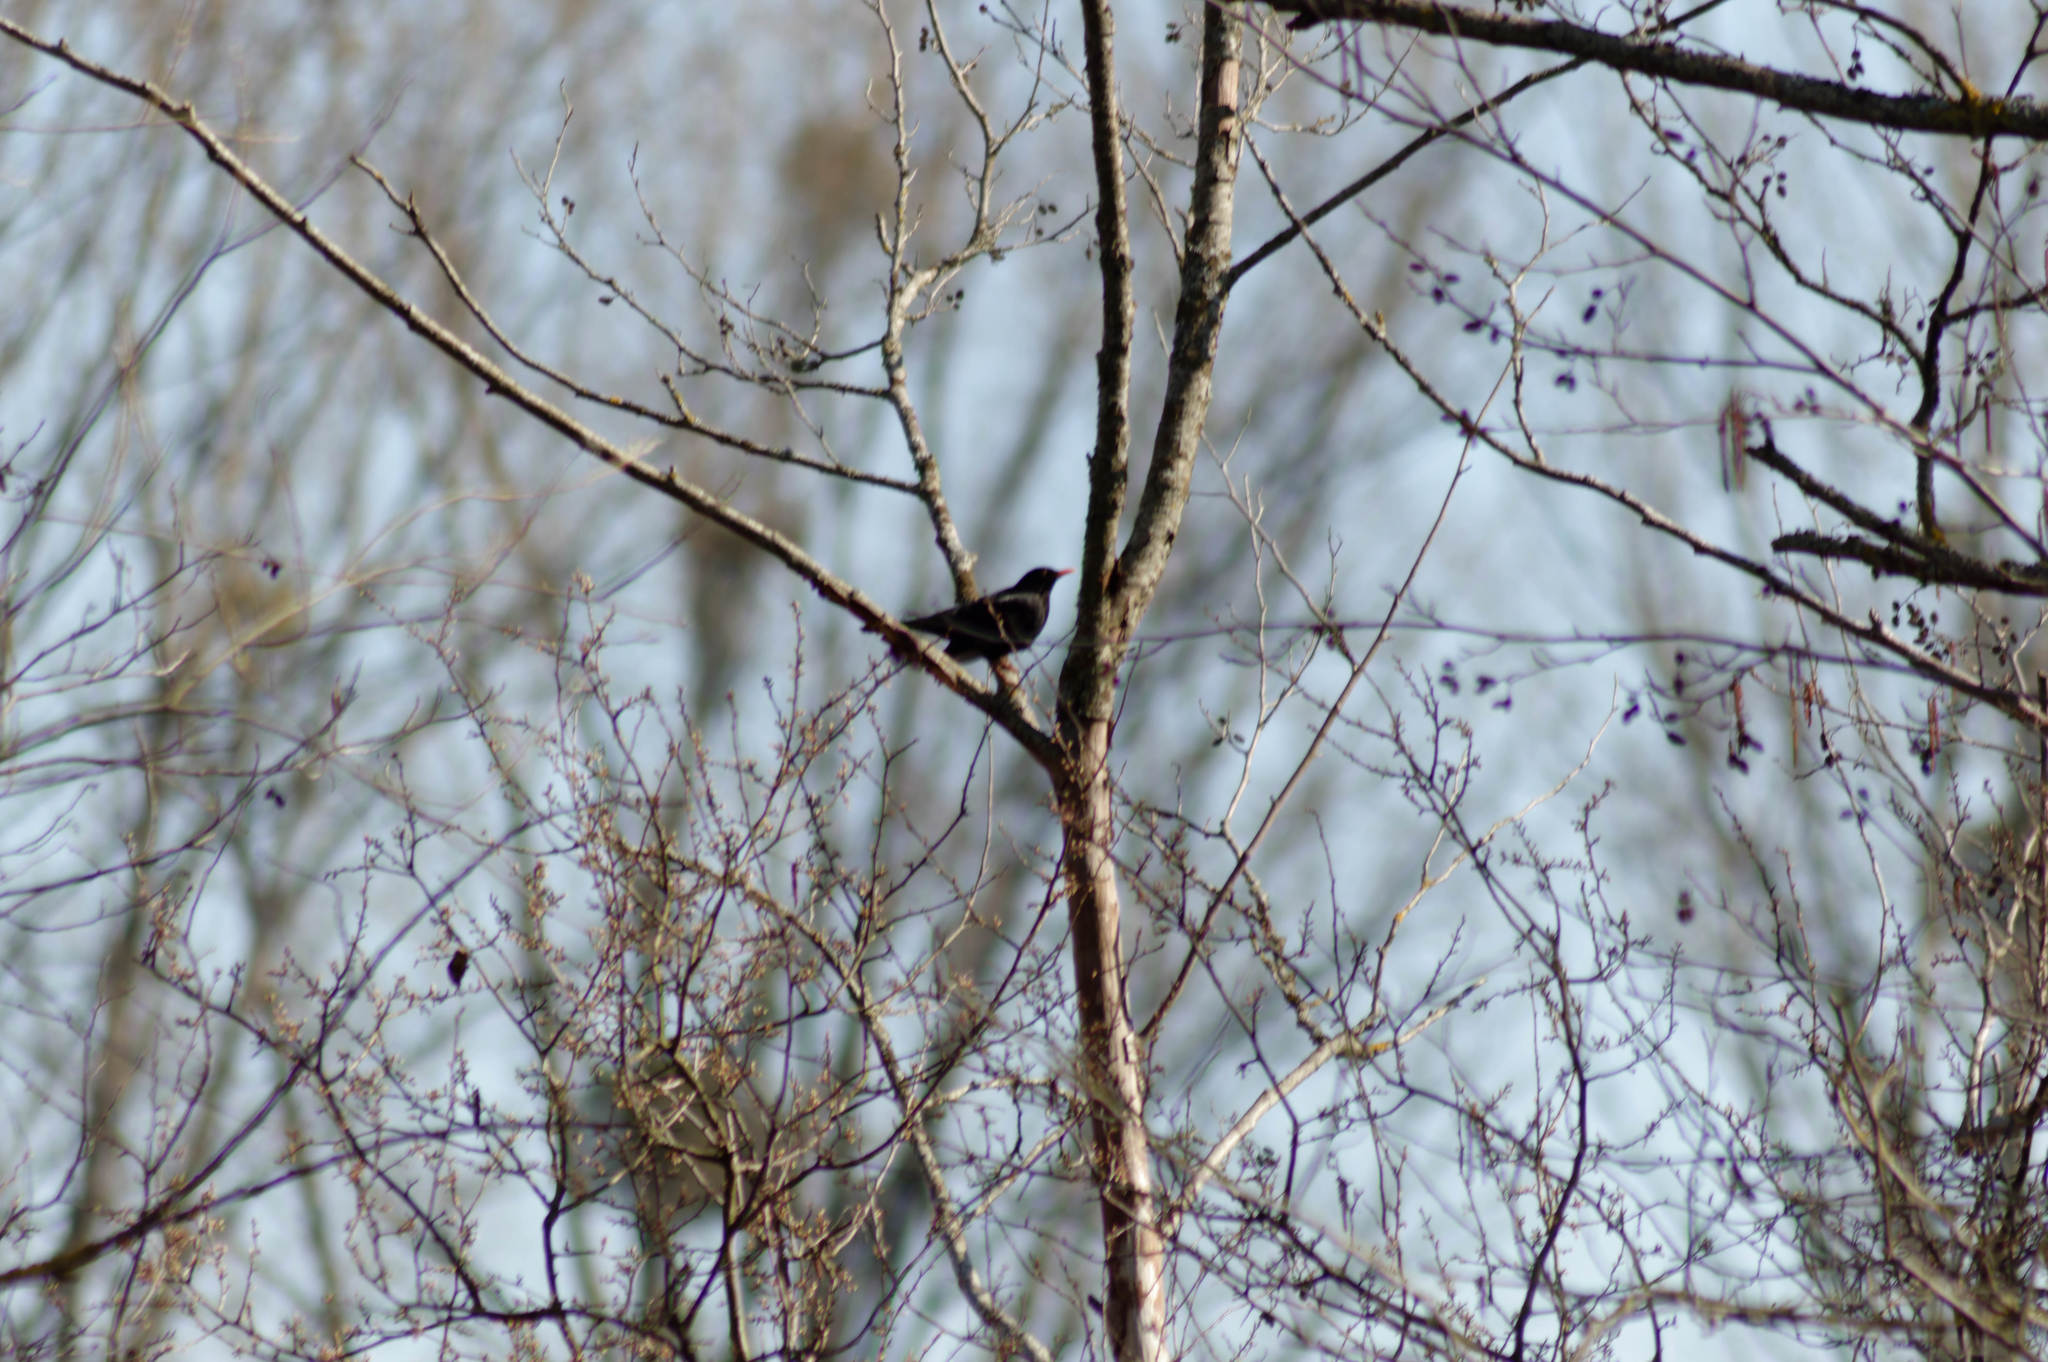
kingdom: Animalia
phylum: Chordata
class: Aves
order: Passeriformes
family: Turdidae
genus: Turdus
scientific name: Turdus merula
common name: Common blackbird
